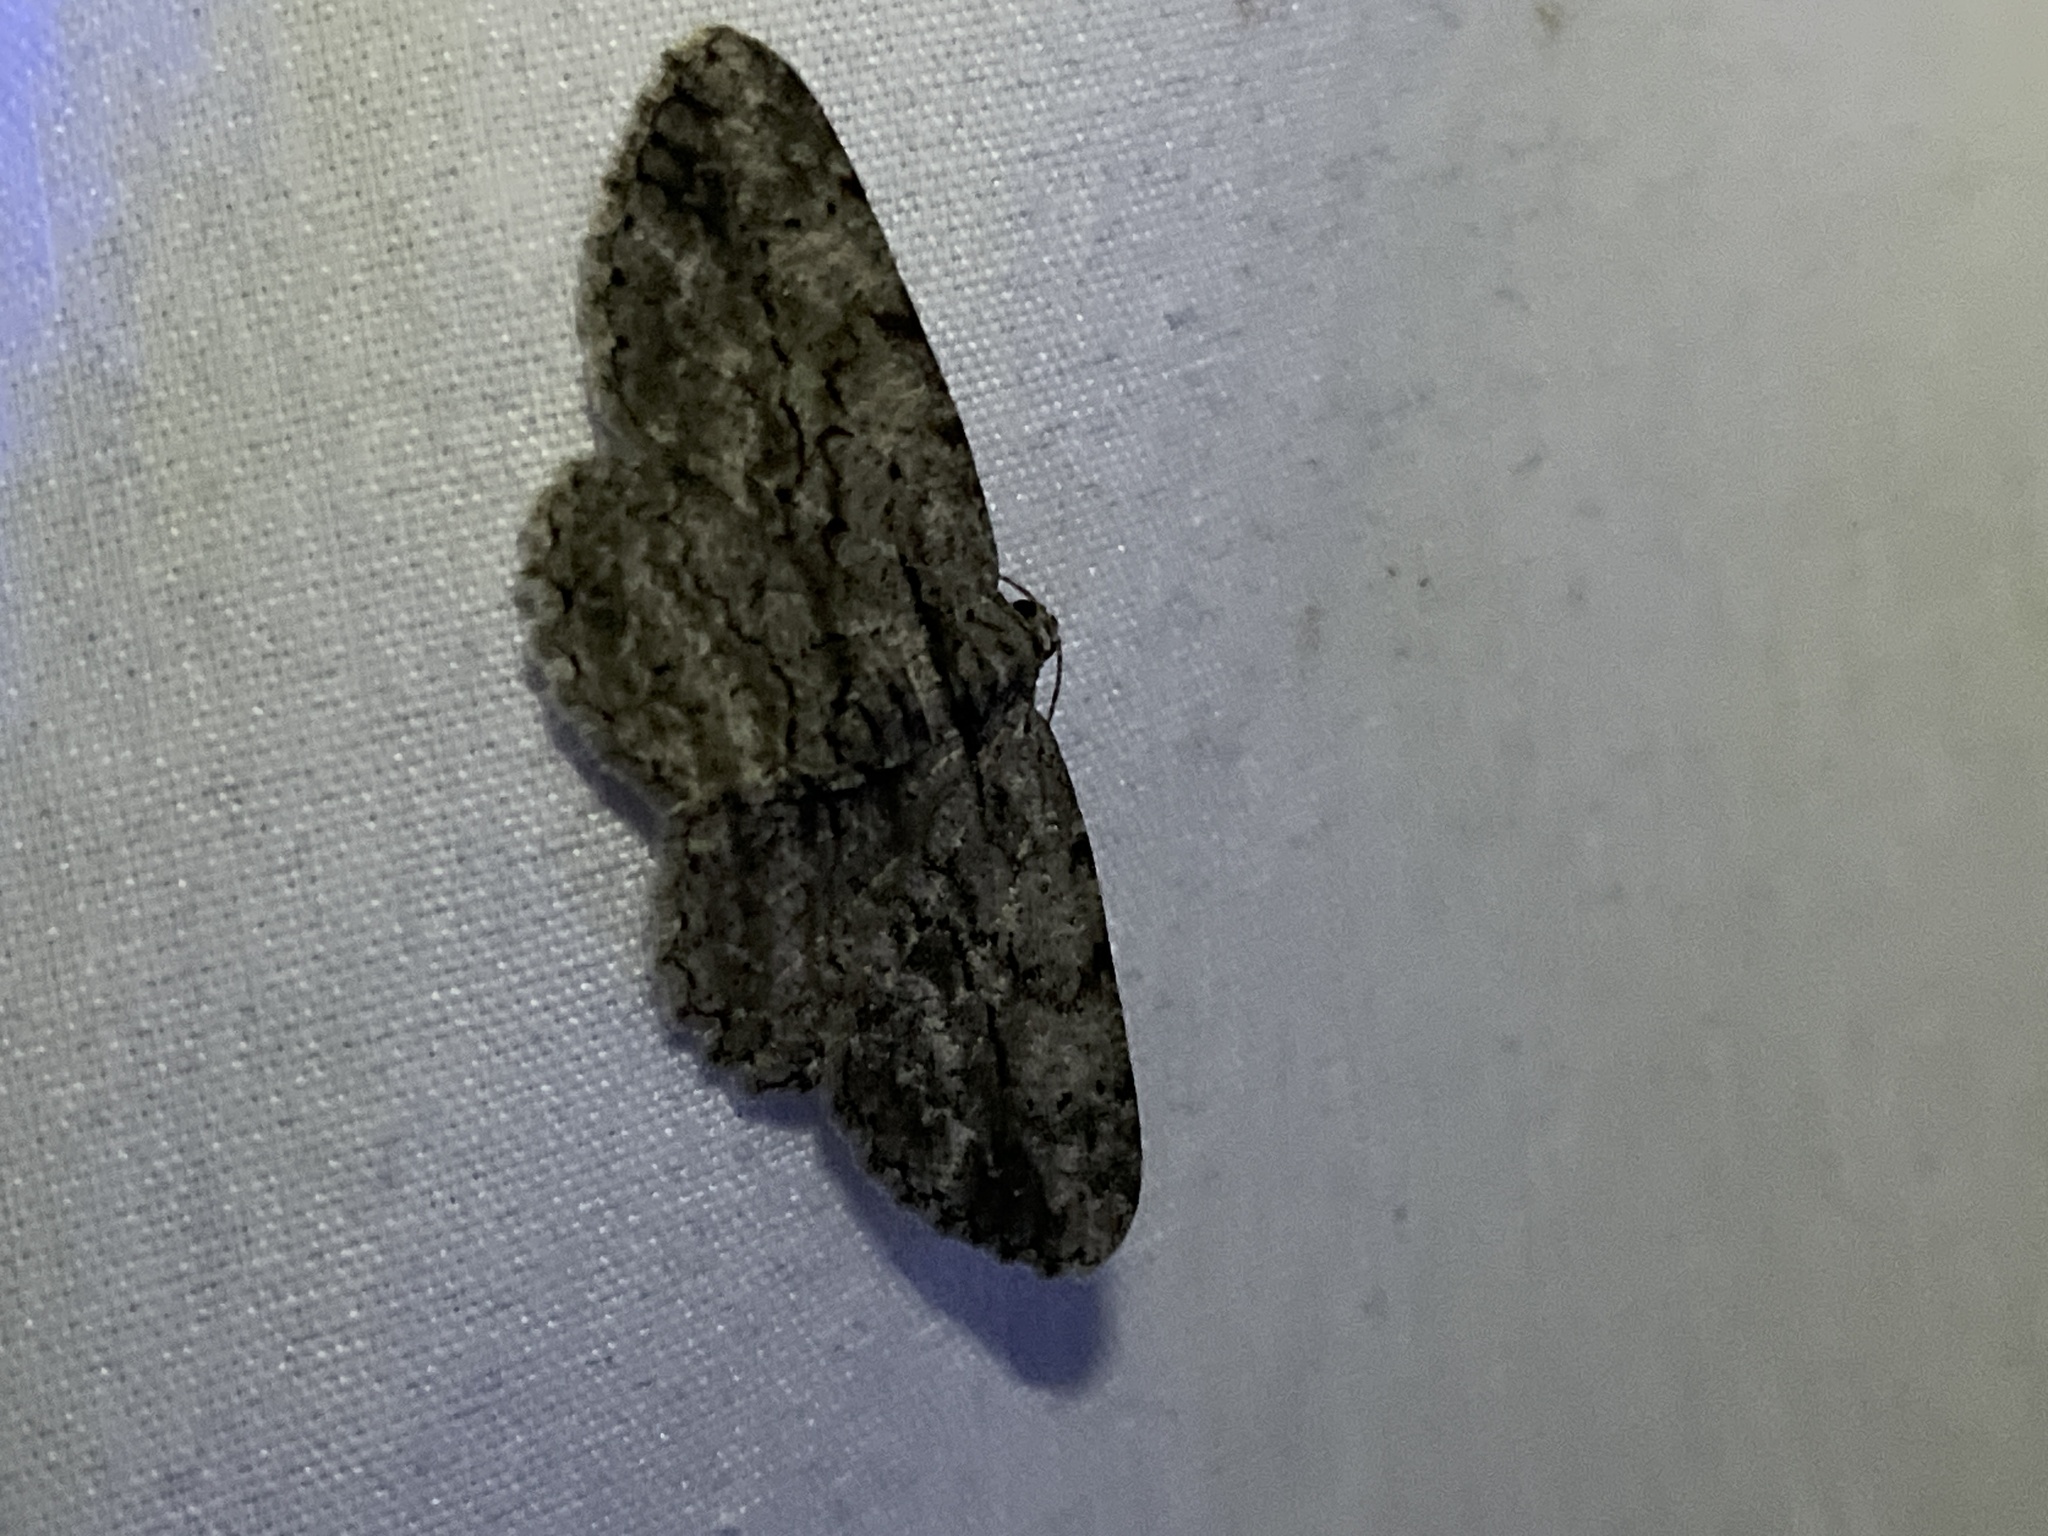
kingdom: Animalia
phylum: Arthropoda
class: Insecta
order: Lepidoptera
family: Geometridae
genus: Anavitrinella
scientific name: Anavitrinella pampinaria
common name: Common gray
